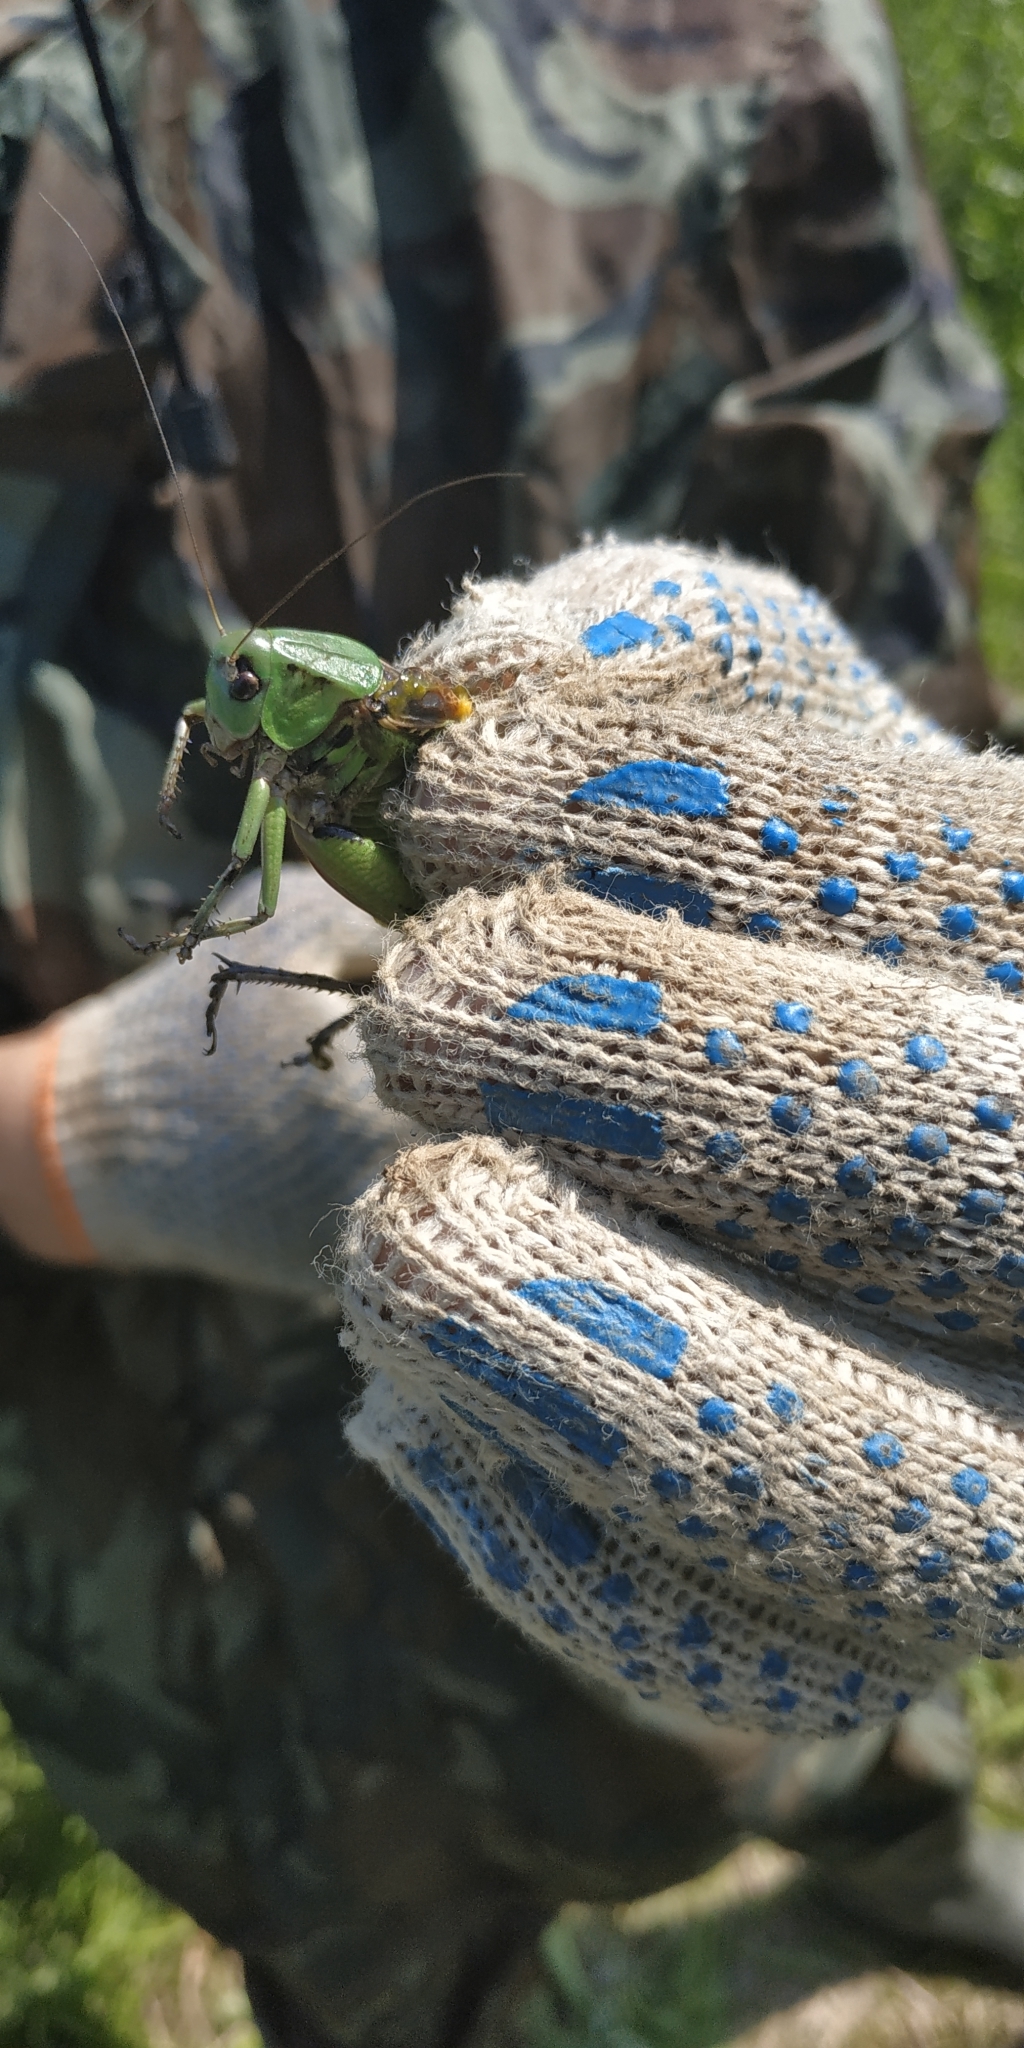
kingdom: Animalia
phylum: Arthropoda
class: Insecta
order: Orthoptera
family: Tettigoniidae
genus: Decticus
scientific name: Decticus verrucivorus
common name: Wart-biter
